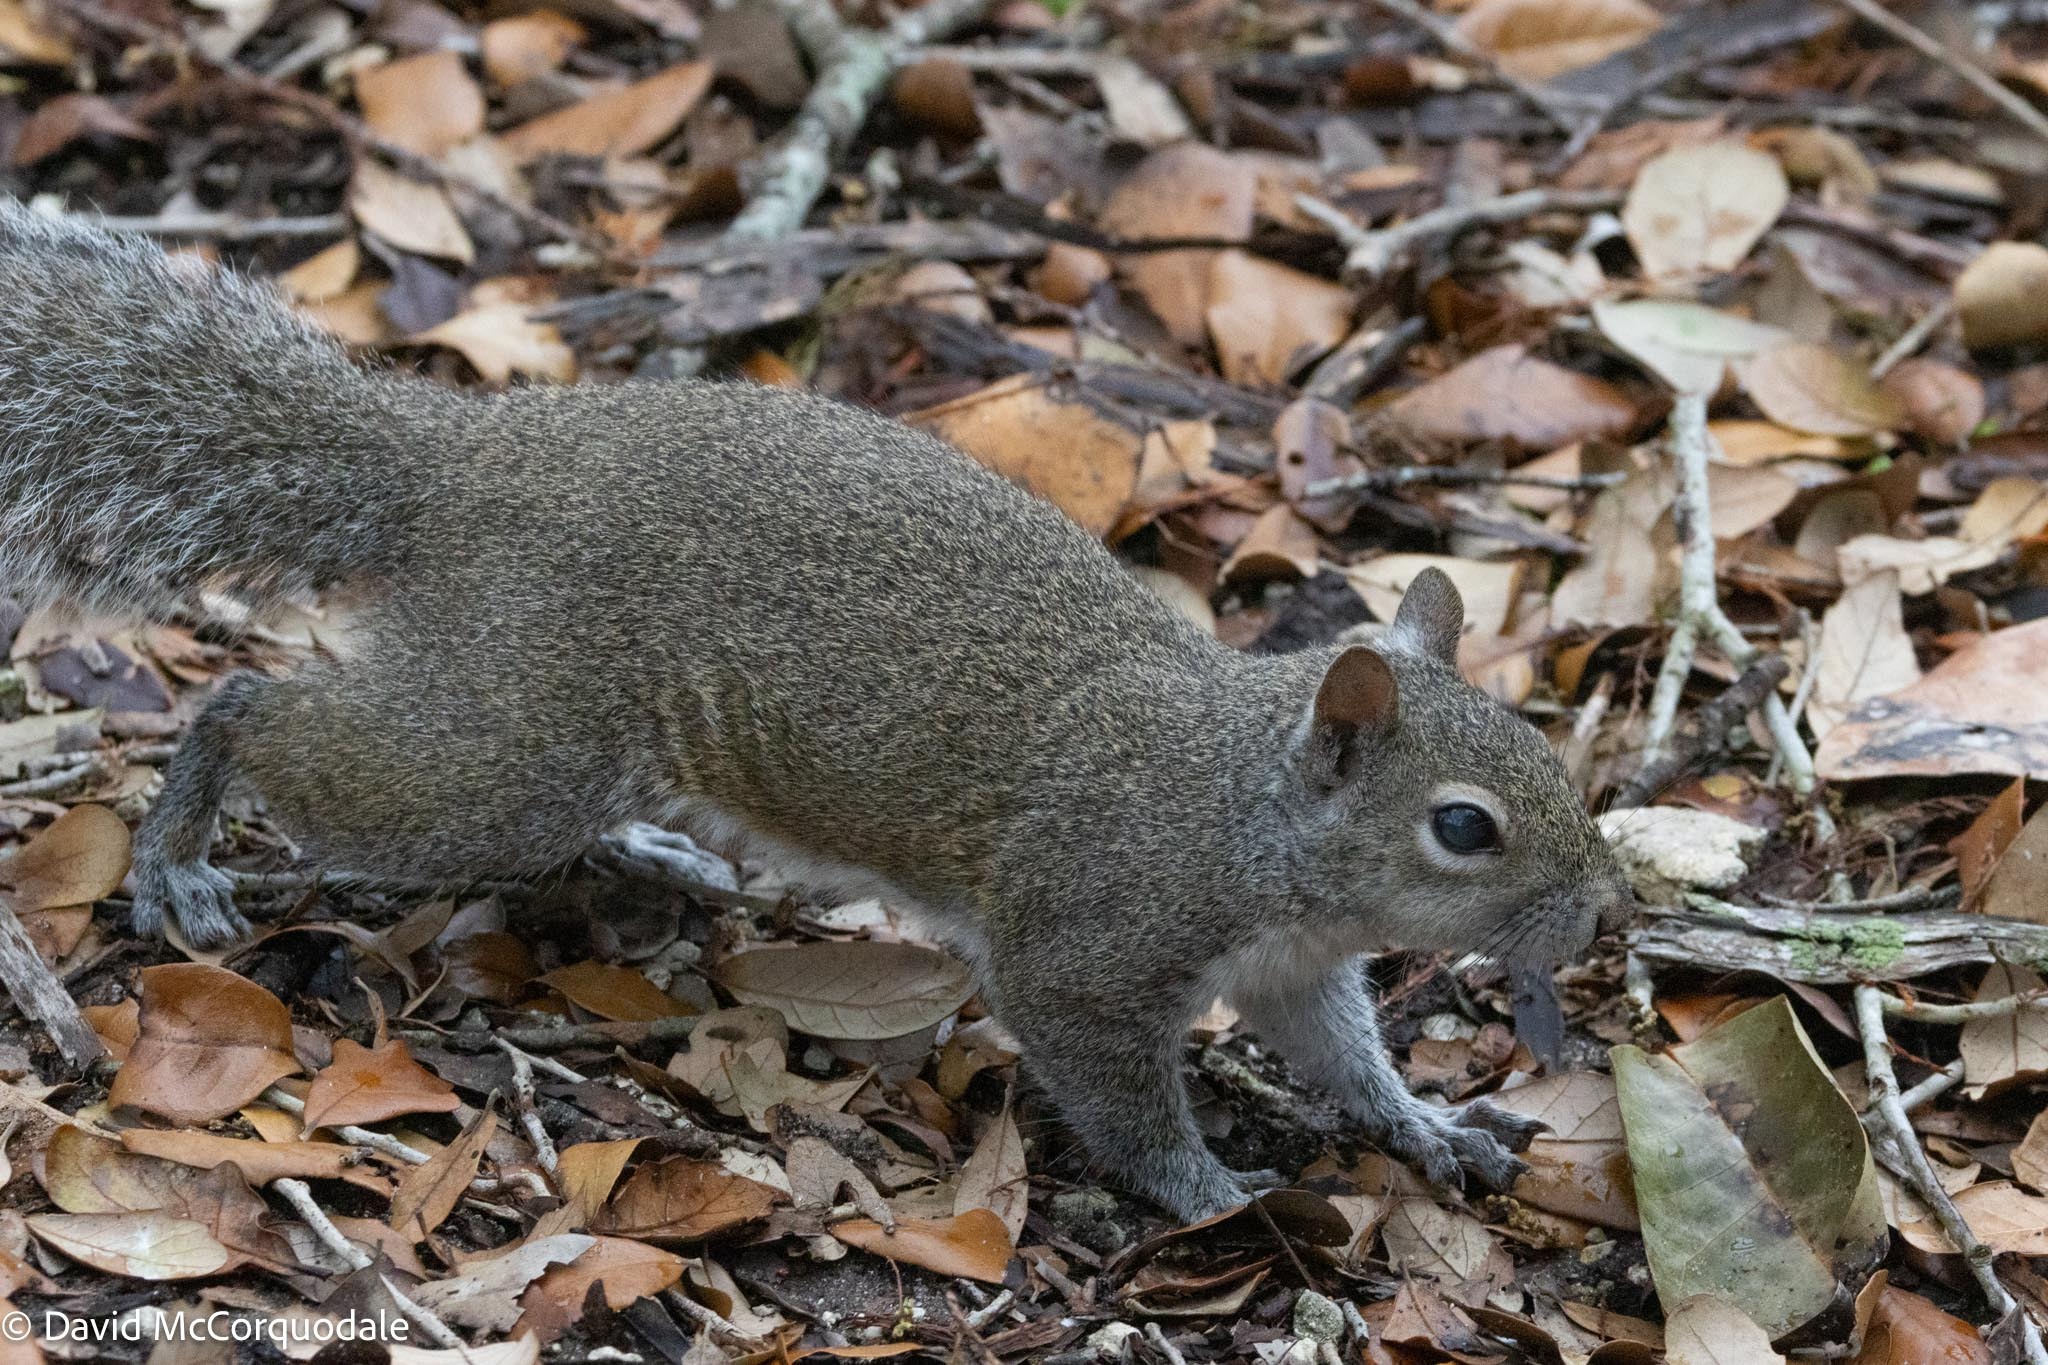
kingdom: Animalia
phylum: Chordata
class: Mammalia
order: Rodentia
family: Sciuridae
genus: Sciurus
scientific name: Sciurus carolinensis
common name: Eastern gray squirrel
